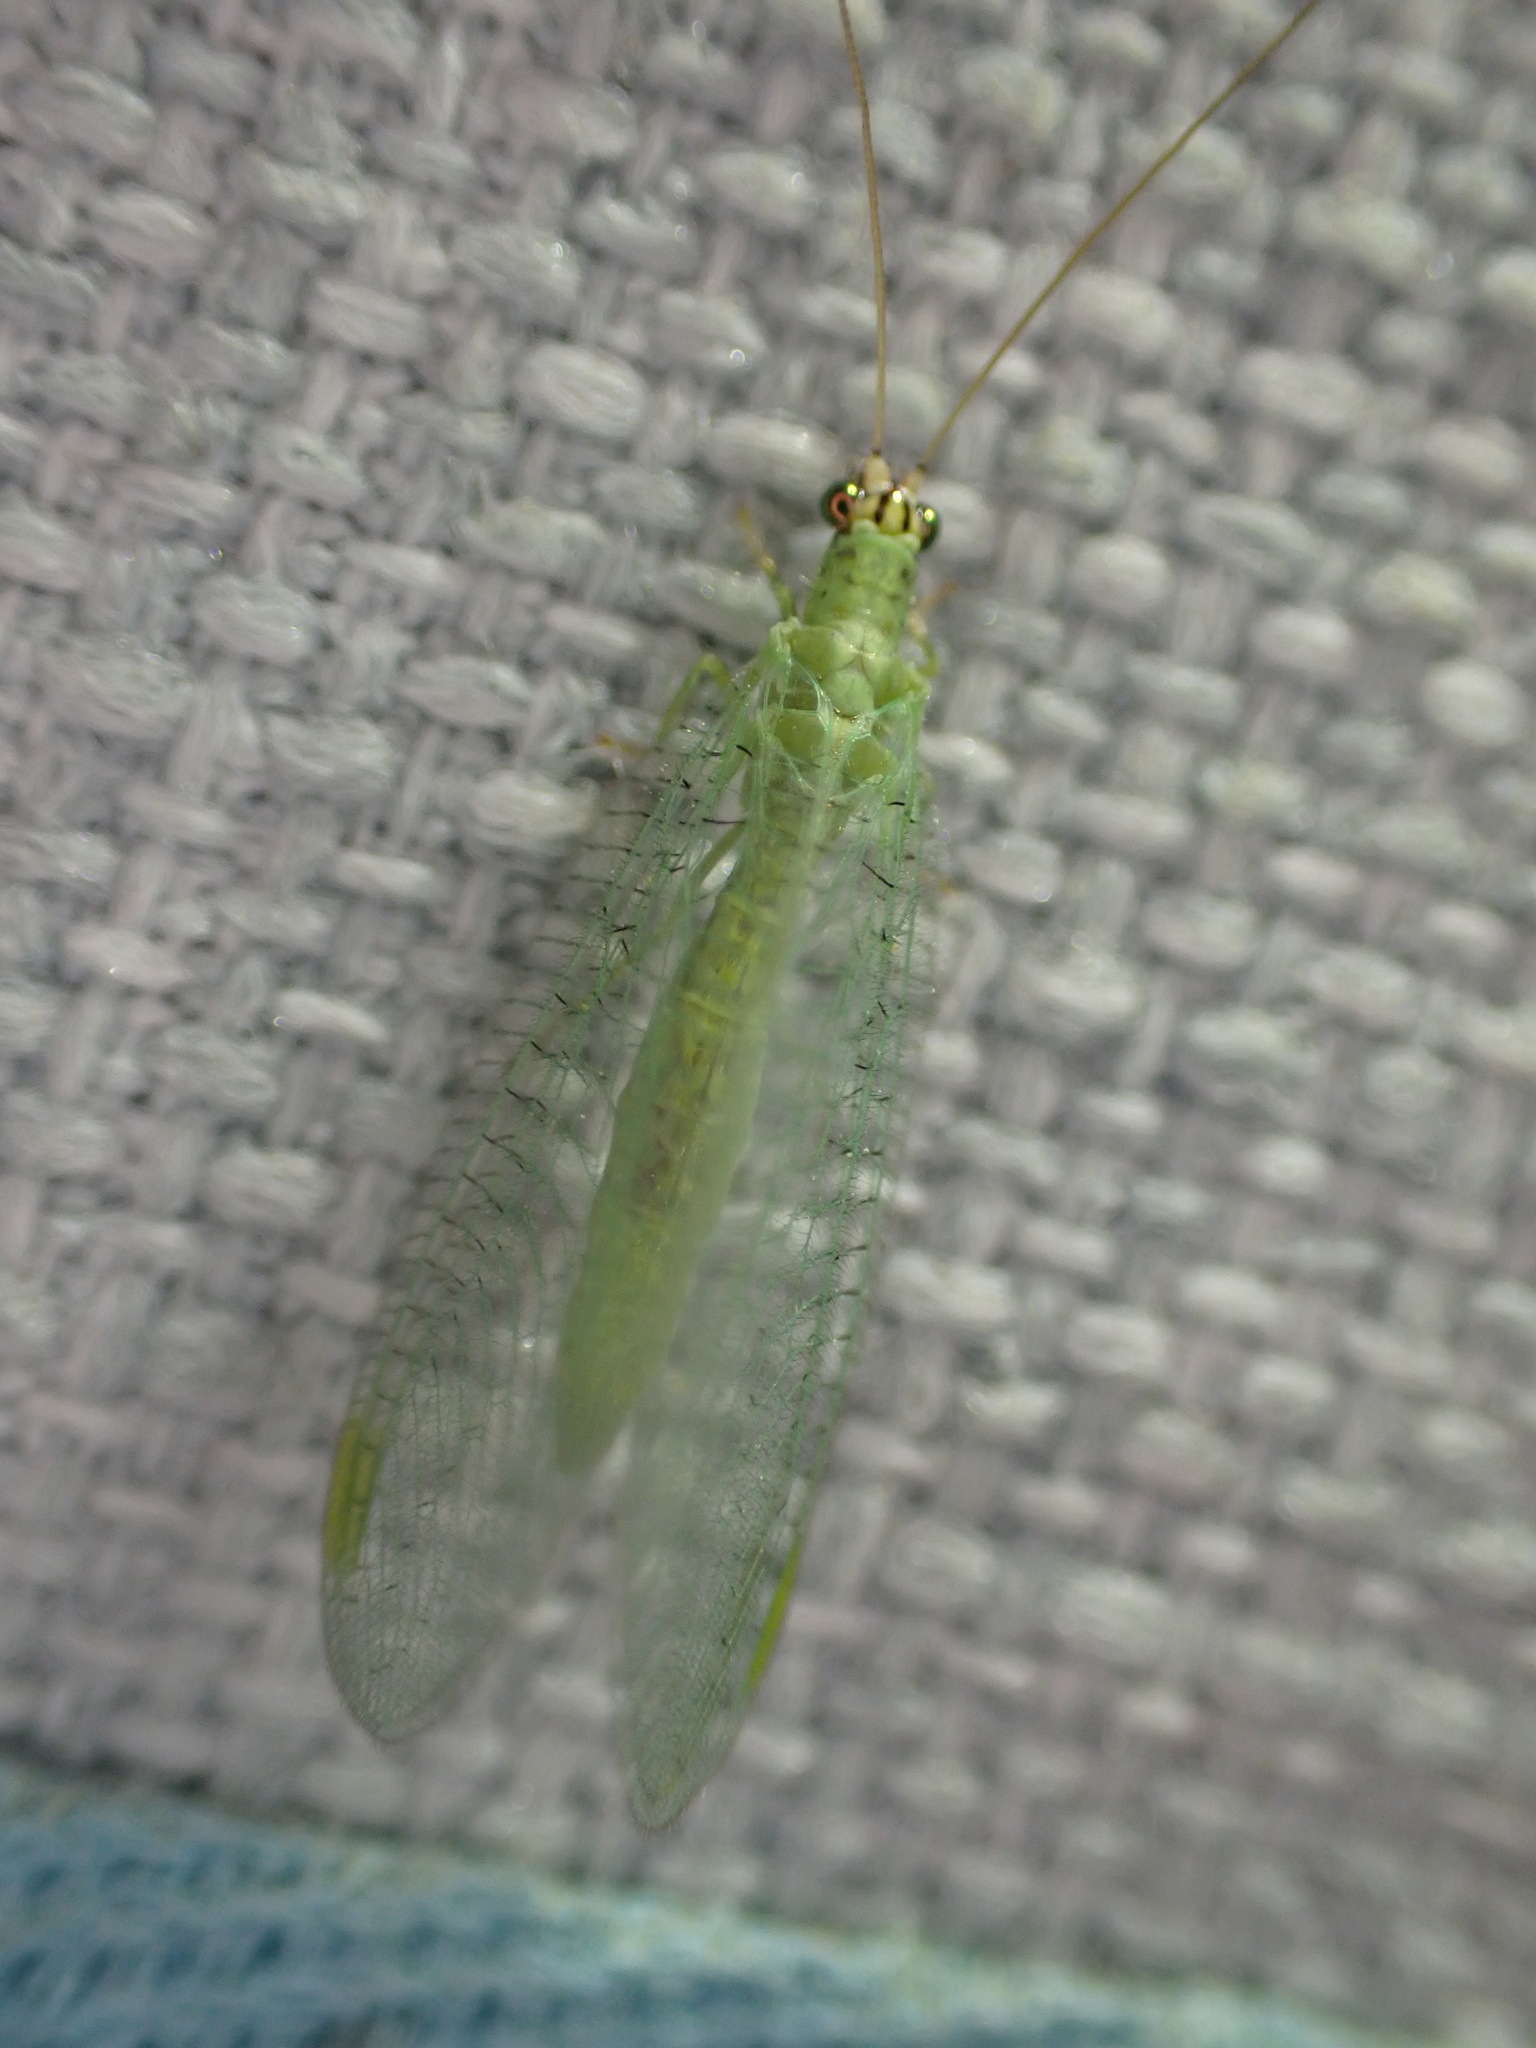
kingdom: Animalia
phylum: Arthropoda
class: Insecta
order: Neuroptera
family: Chrysopidae
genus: Chrysopa
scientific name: Chrysopa oculata
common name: Golden-eyed lacewing
